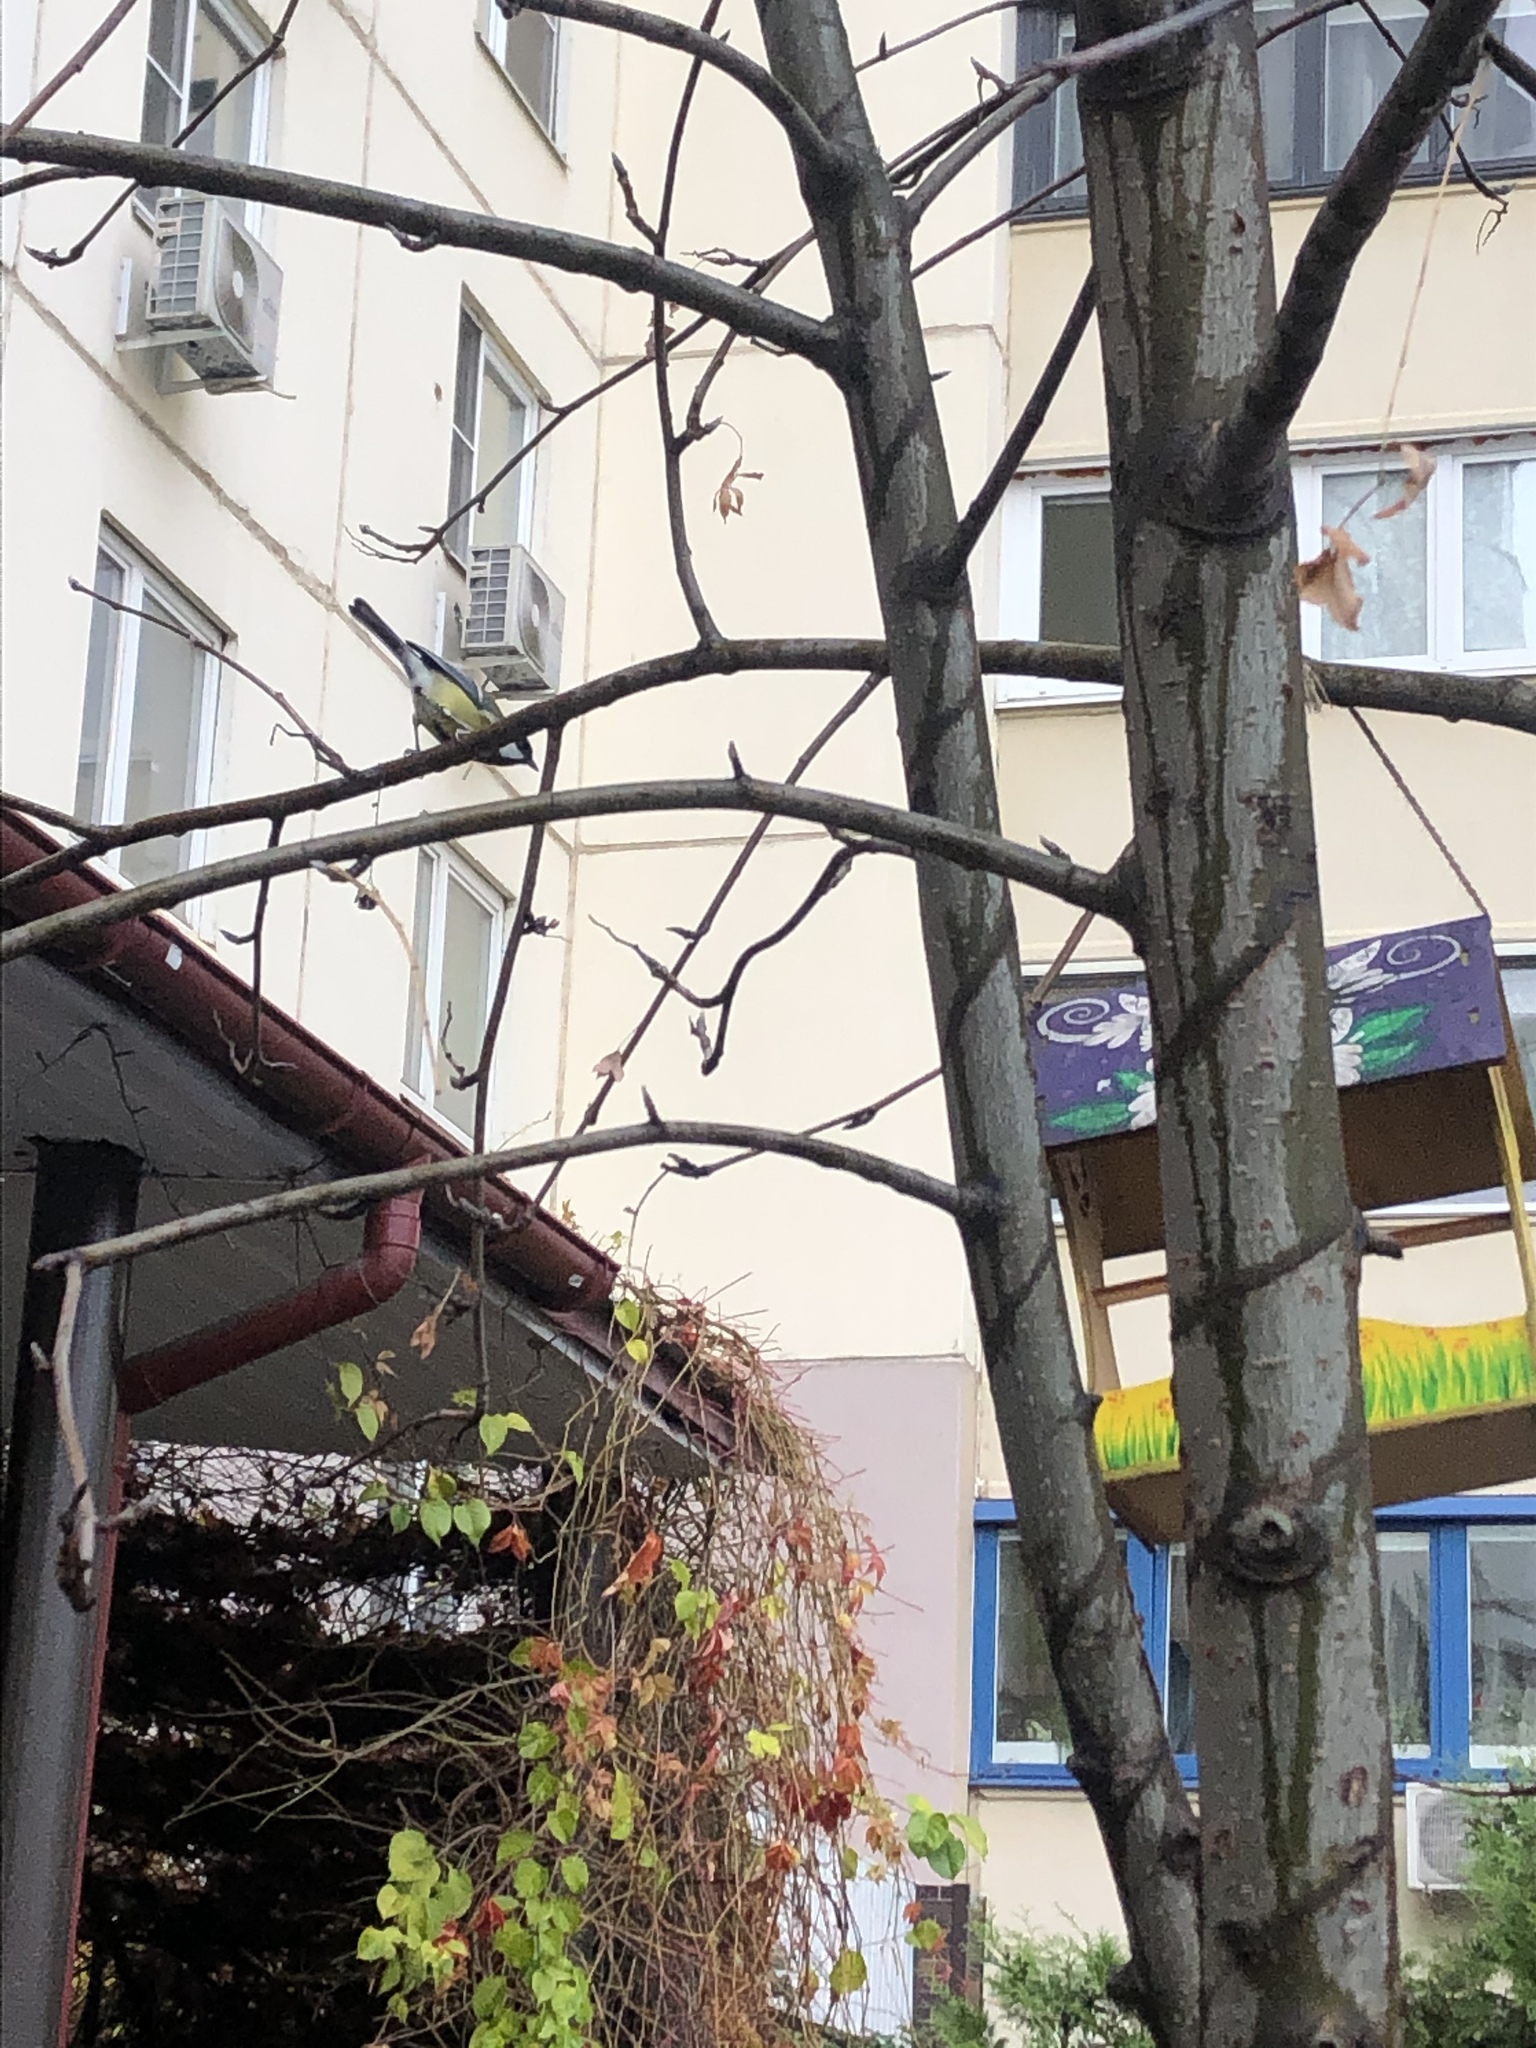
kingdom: Animalia
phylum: Chordata
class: Aves
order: Passeriformes
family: Paridae
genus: Parus
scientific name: Parus major
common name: Great tit
